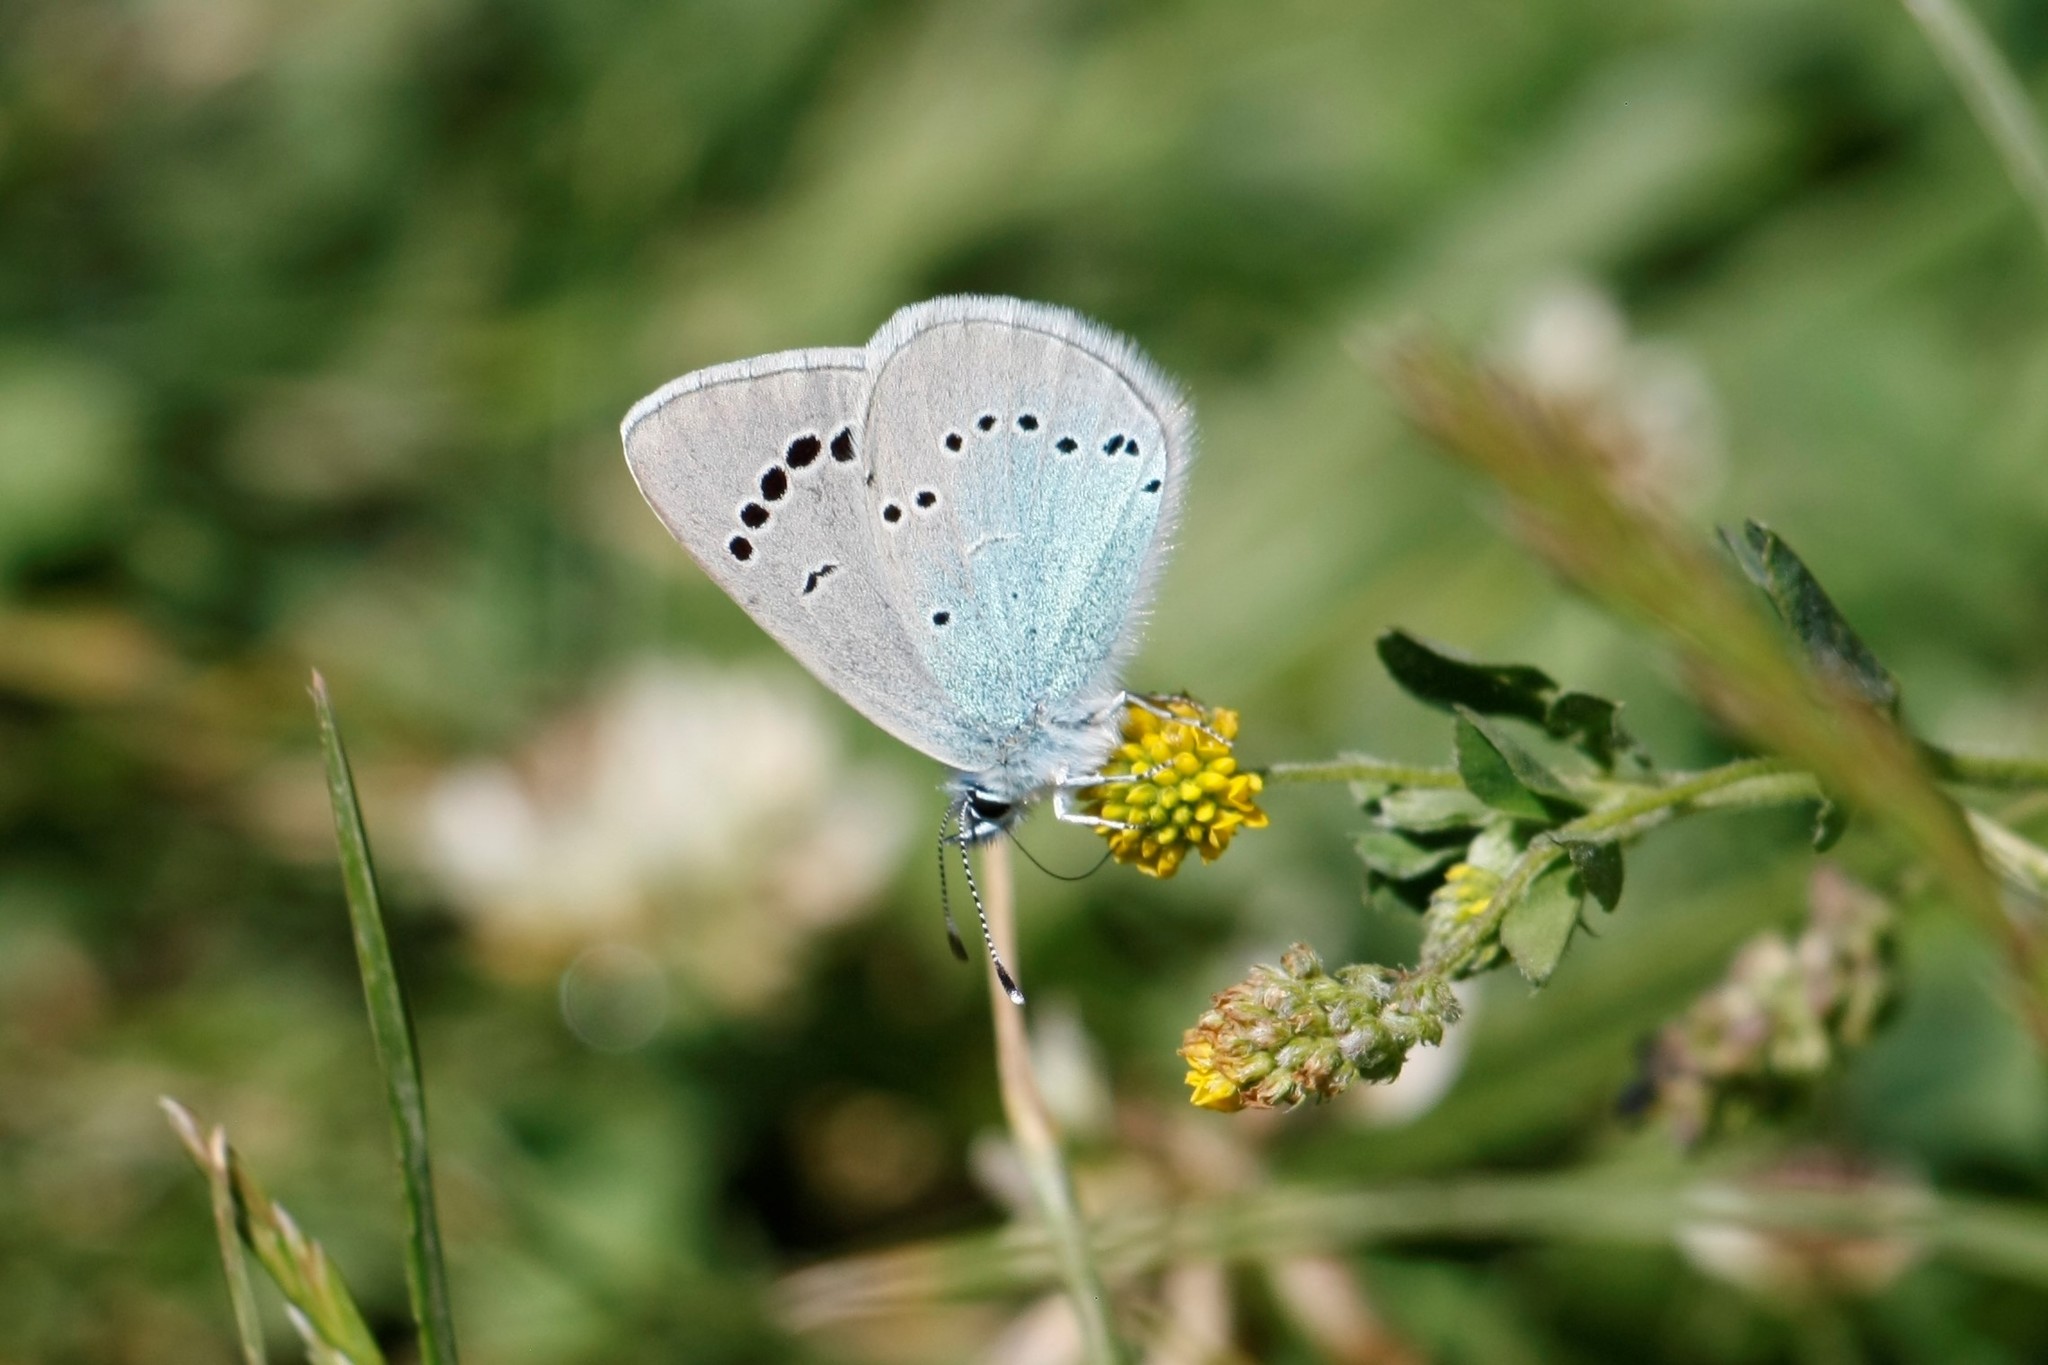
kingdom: Animalia
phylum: Arthropoda
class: Insecta
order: Lepidoptera
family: Lycaenidae
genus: Glaucopsyche
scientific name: Glaucopsyche alexis
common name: Green-underside blue
